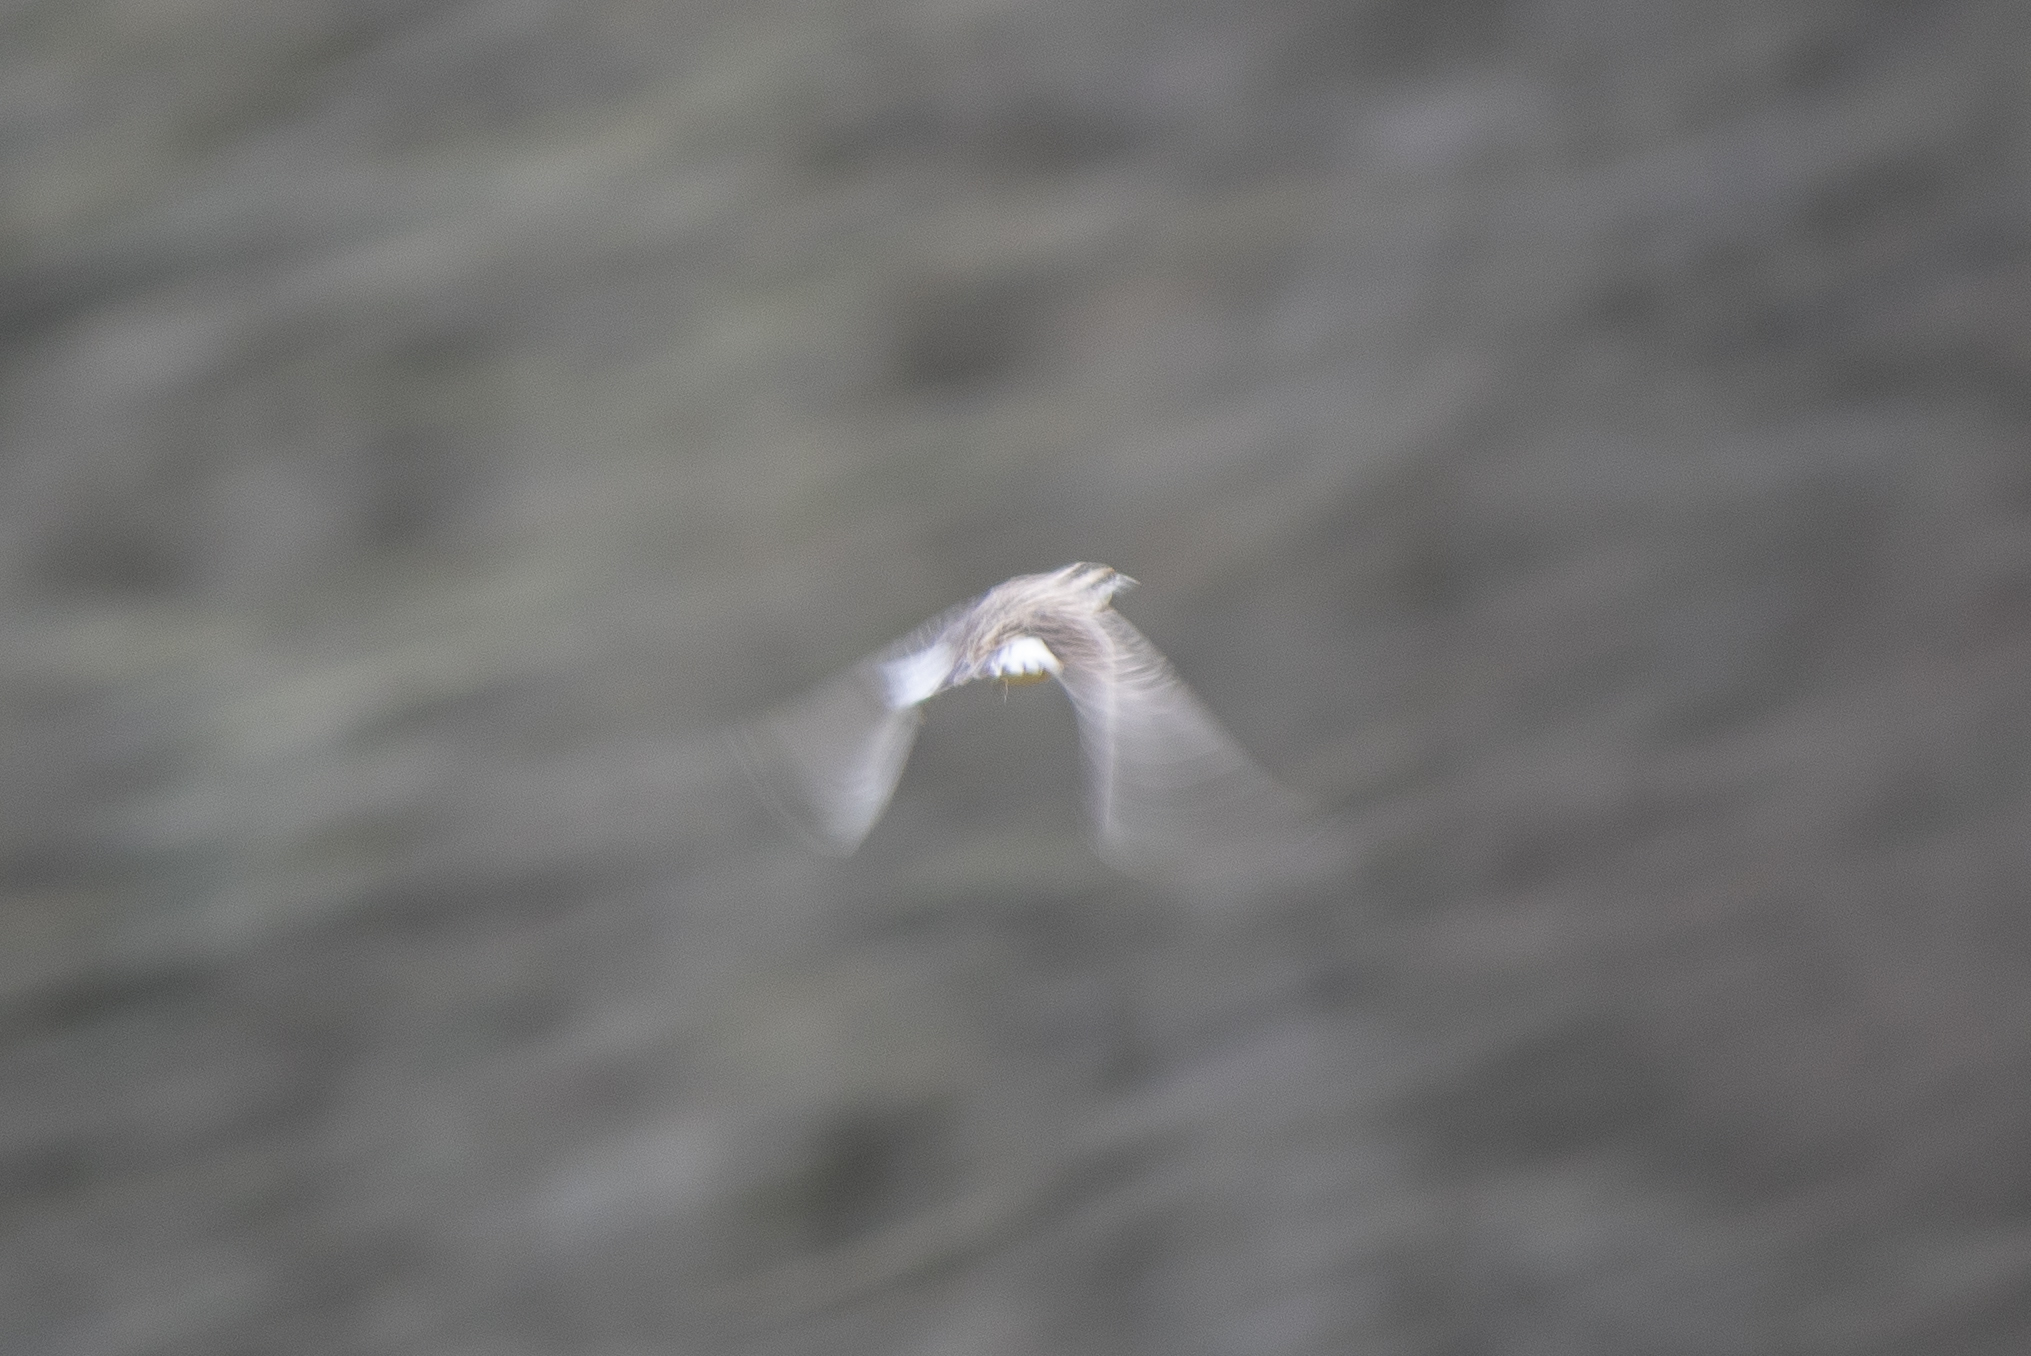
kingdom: Animalia
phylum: Chordata
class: Aves
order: Passeriformes
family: Icteridae
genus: Sturnella
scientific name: Sturnella neglecta
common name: Western meadowlark
